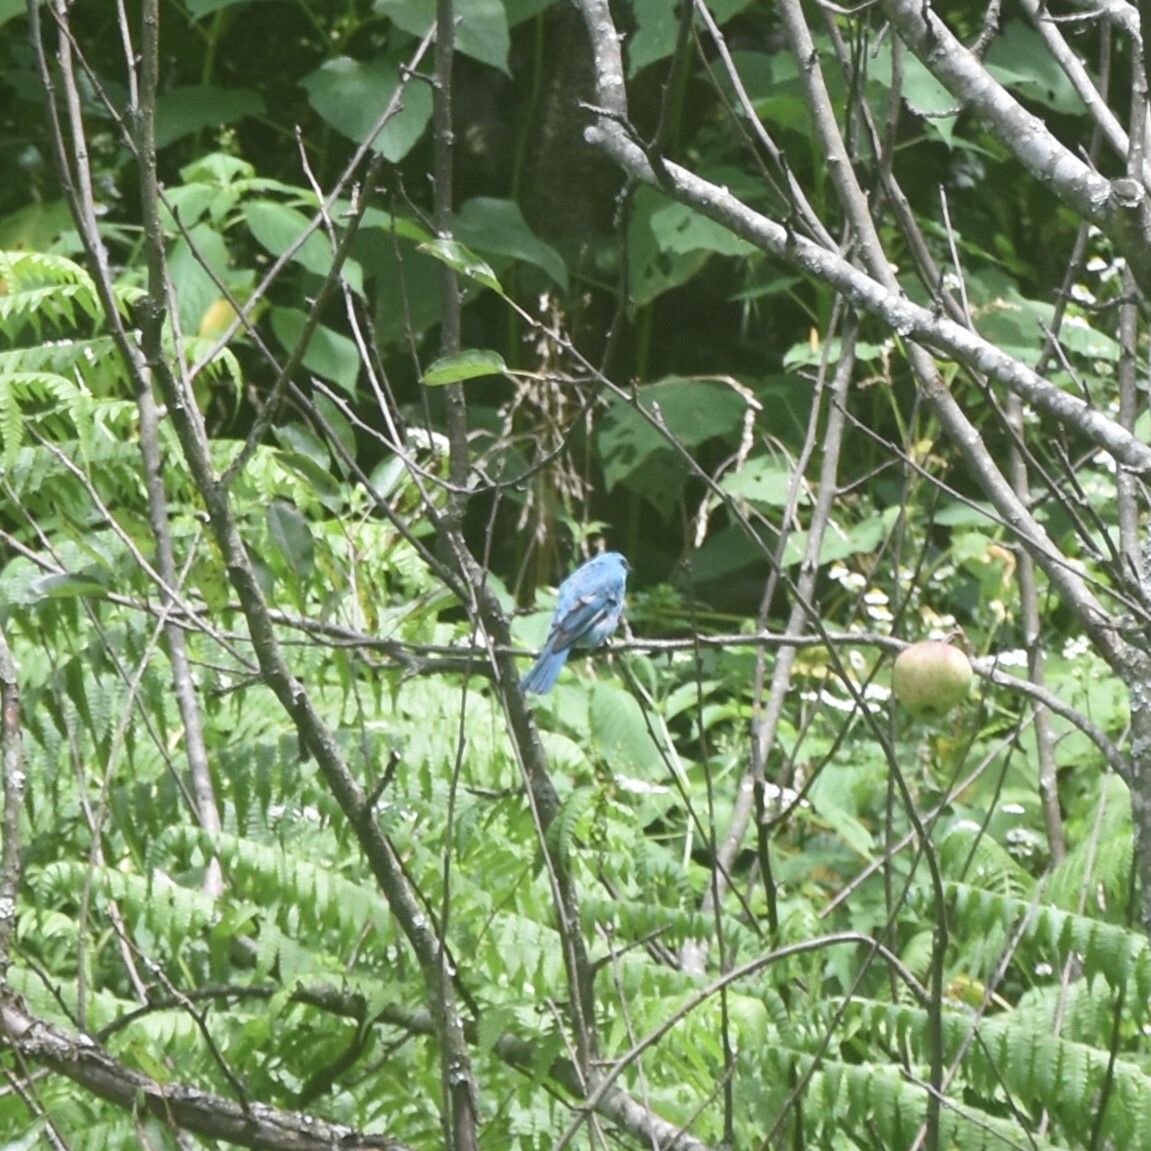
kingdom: Animalia
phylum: Chordata
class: Aves
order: Passeriformes
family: Muscicapidae
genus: Eumyias
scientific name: Eumyias thalassinus
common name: Verditer flycatcher
